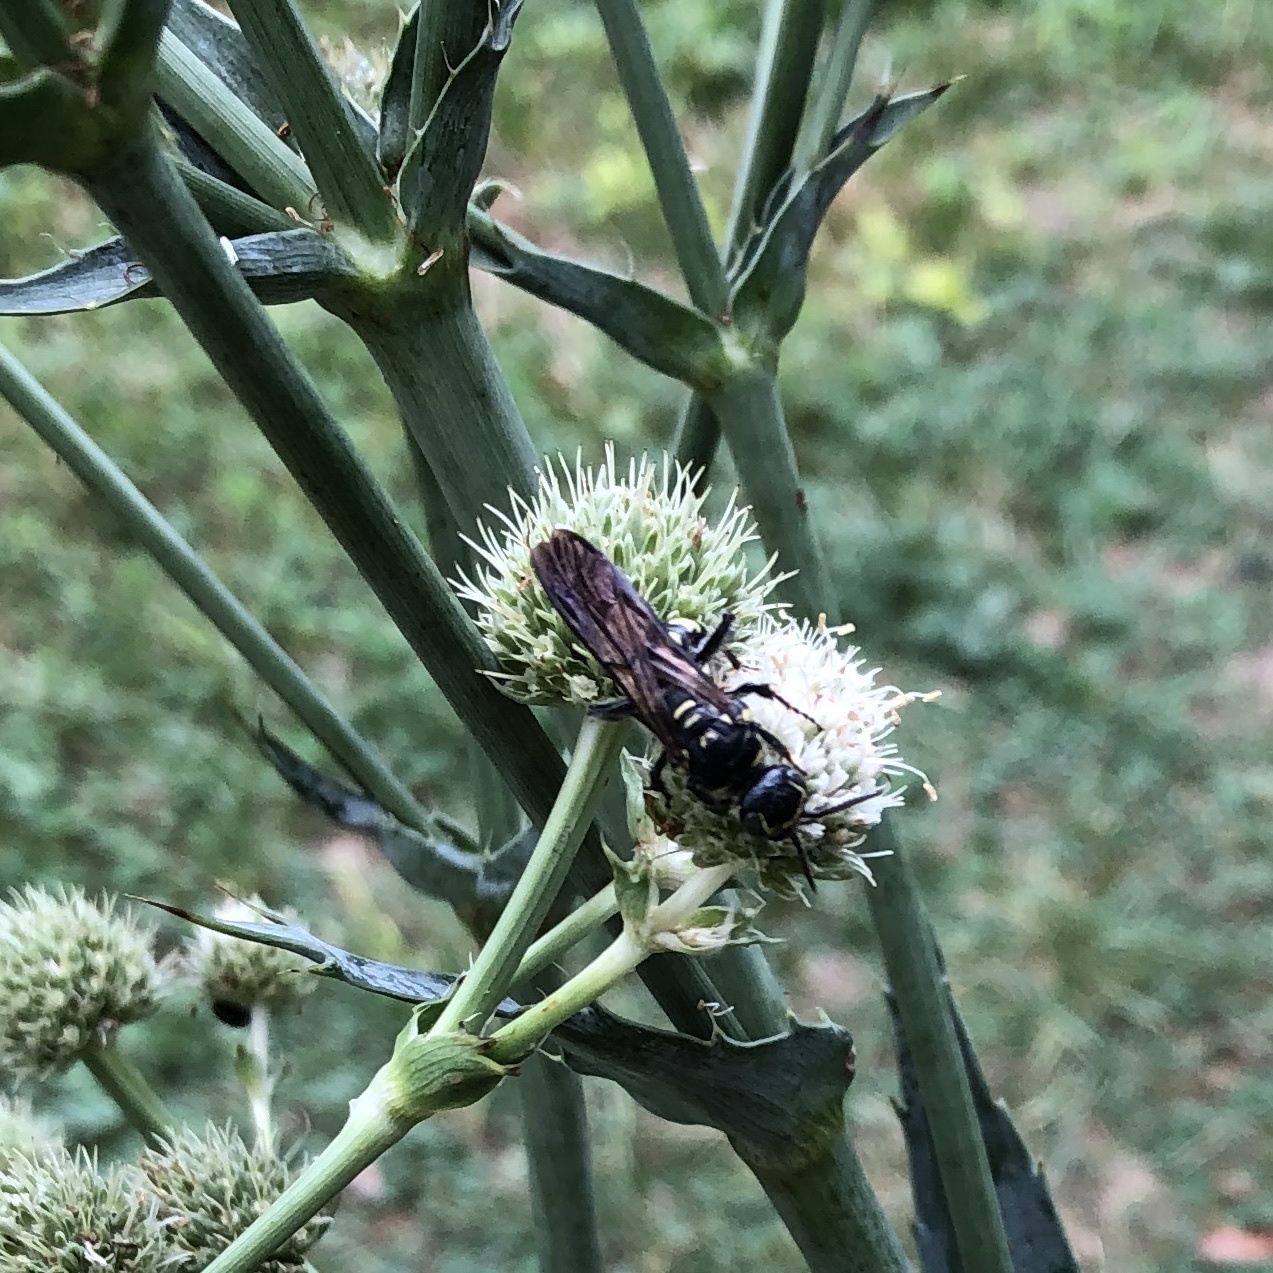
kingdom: Animalia
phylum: Arthropoda
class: Insecta
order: Hymenoptera
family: Tiphiidae
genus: Myzinum
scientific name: Myzinum obscurum
